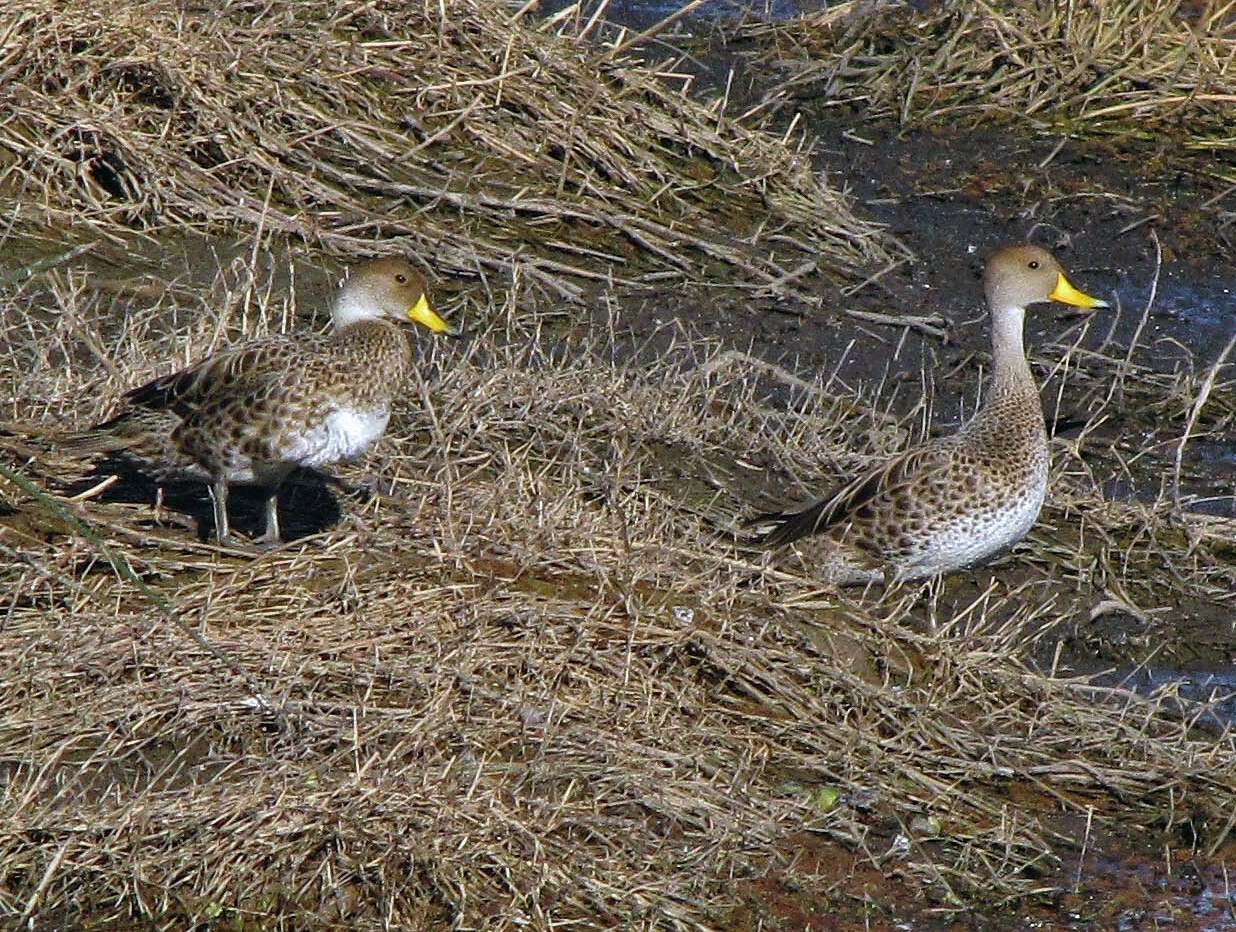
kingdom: Animalia
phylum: Chordata
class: Aves
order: Anseriformes
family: Anatidae
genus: Anas
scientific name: Anas georgica
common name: Yellow-billed pintail
